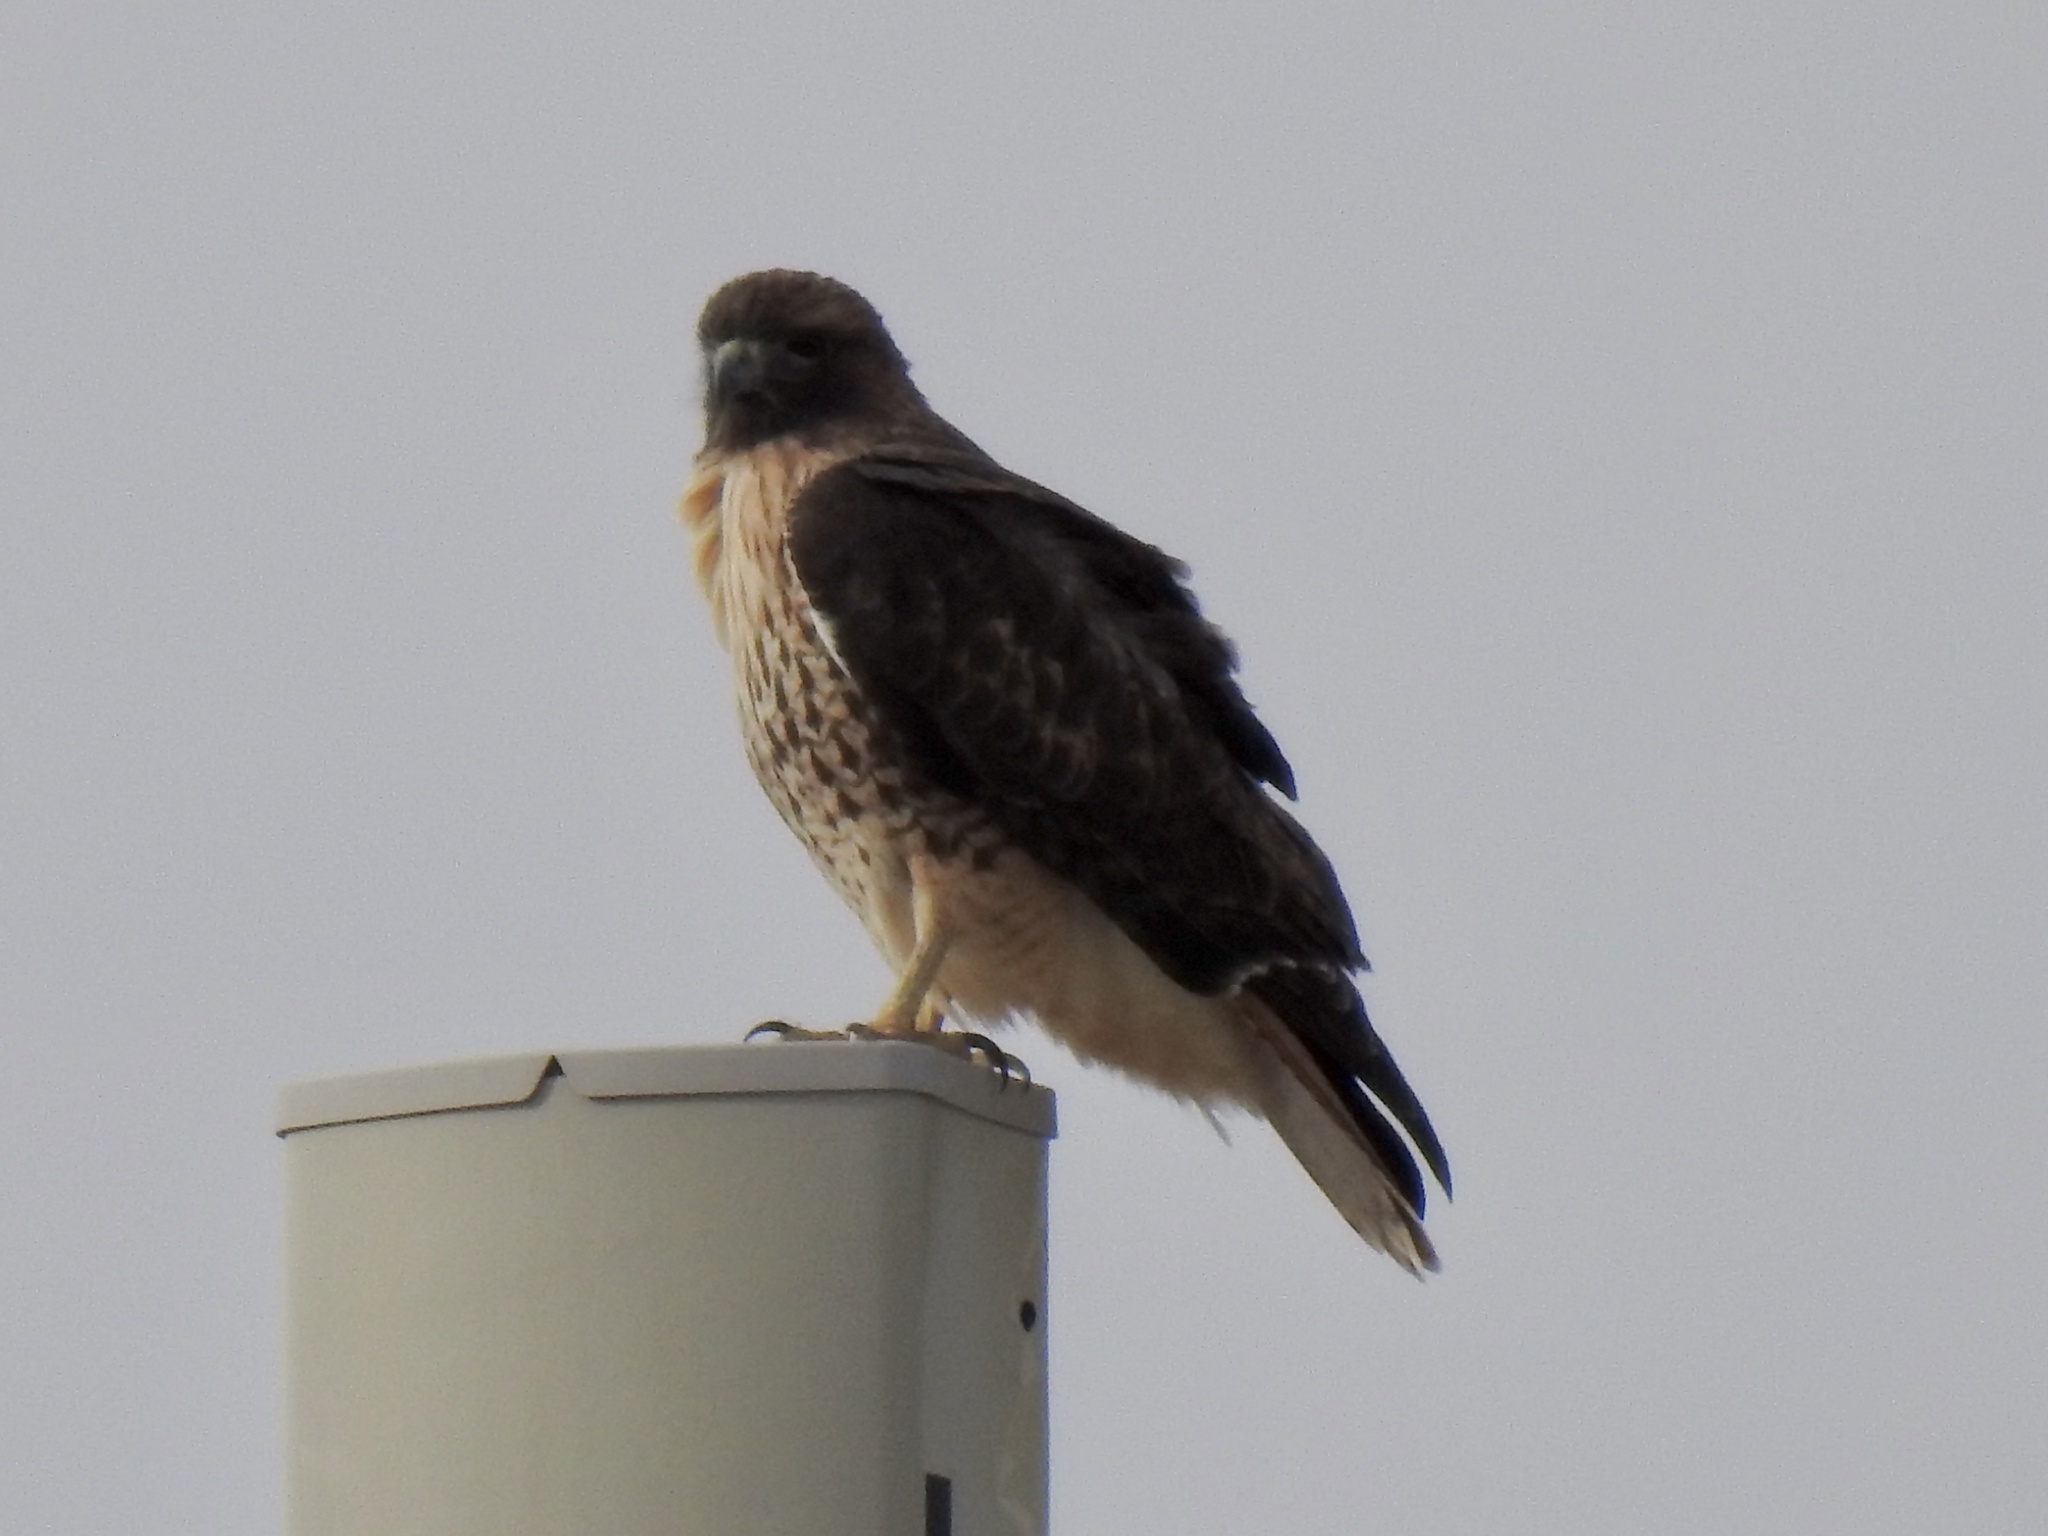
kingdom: Animalia
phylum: Chordata
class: Aves
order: Accipitriformes
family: Accipitridae
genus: Buteo
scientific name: Buteo jamaicensis
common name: Red-tailed hawk
